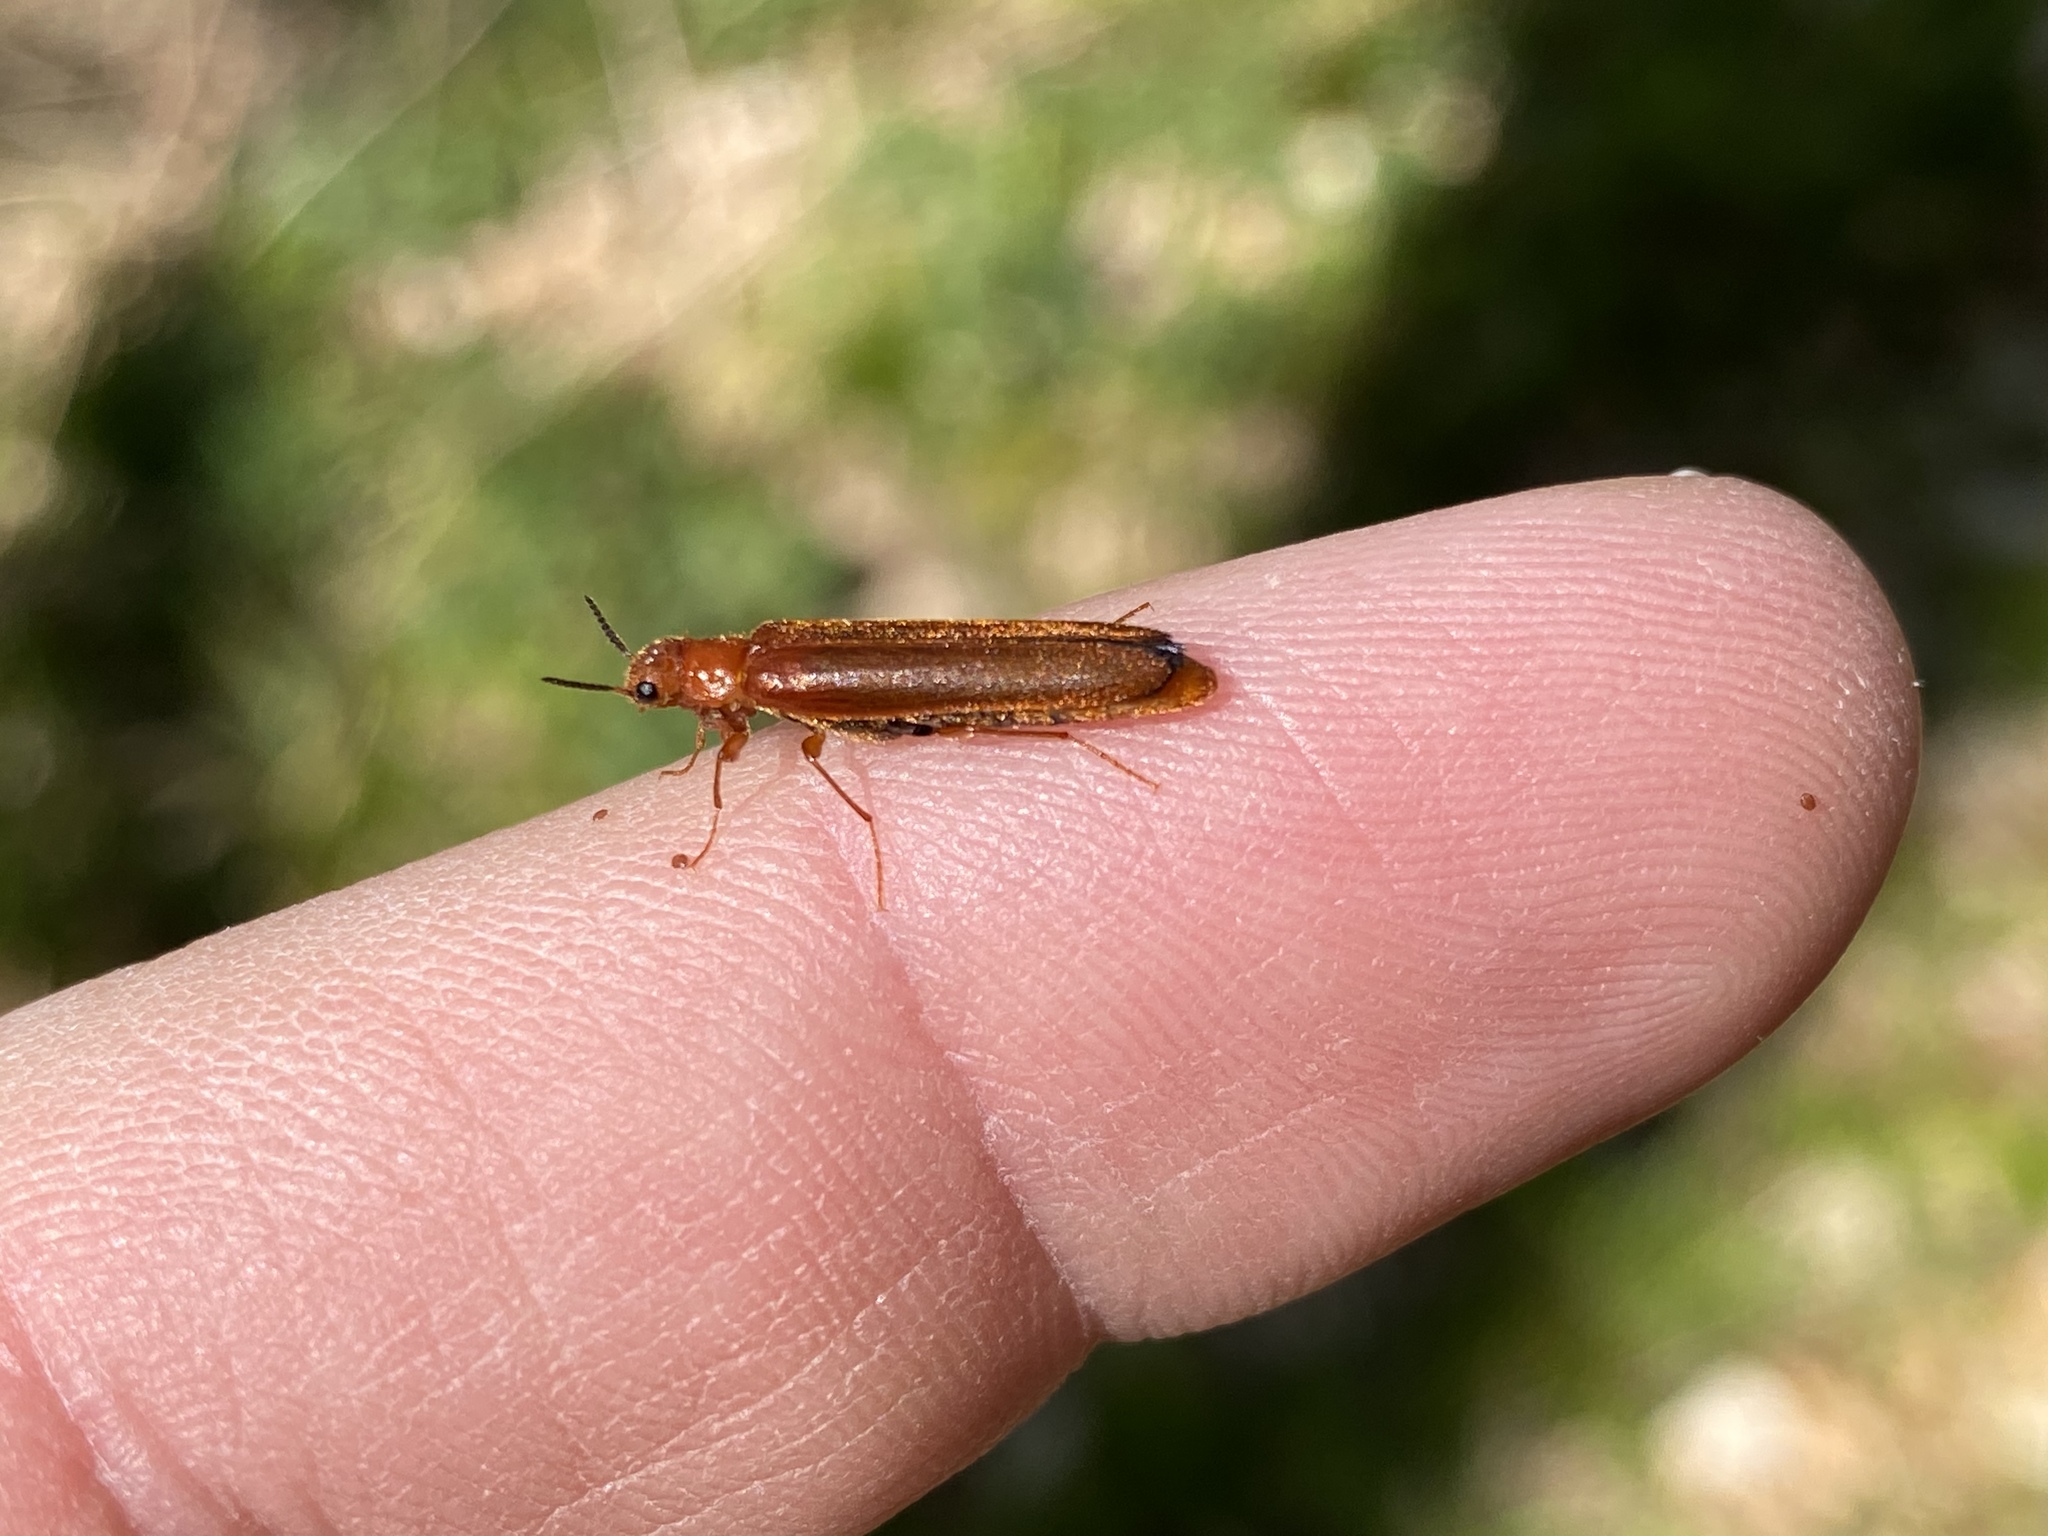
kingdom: Animalia
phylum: Arthropoda
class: Insecta
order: Coleoptera
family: Lymexylidae
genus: Hylecoetus
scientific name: Hylecoetus dermestoides
